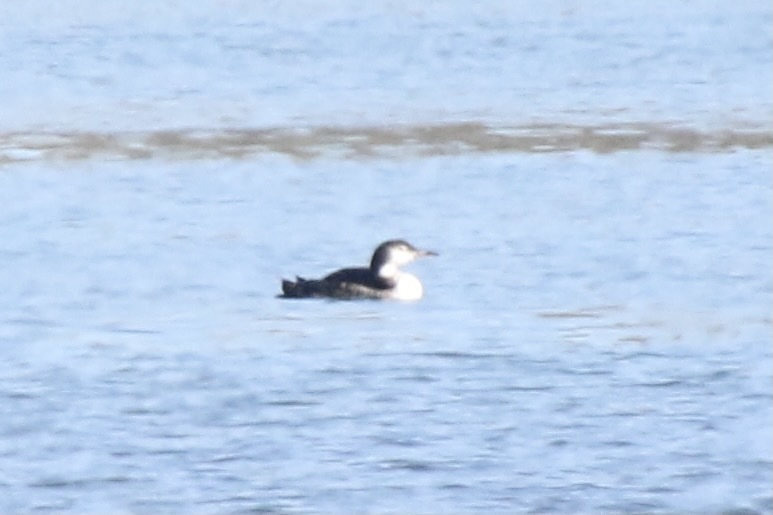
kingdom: Animalia
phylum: Chordata
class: Aves
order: Gaviiformes
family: Gaviidae
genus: Gavia
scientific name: Gavia immer
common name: Common loon
